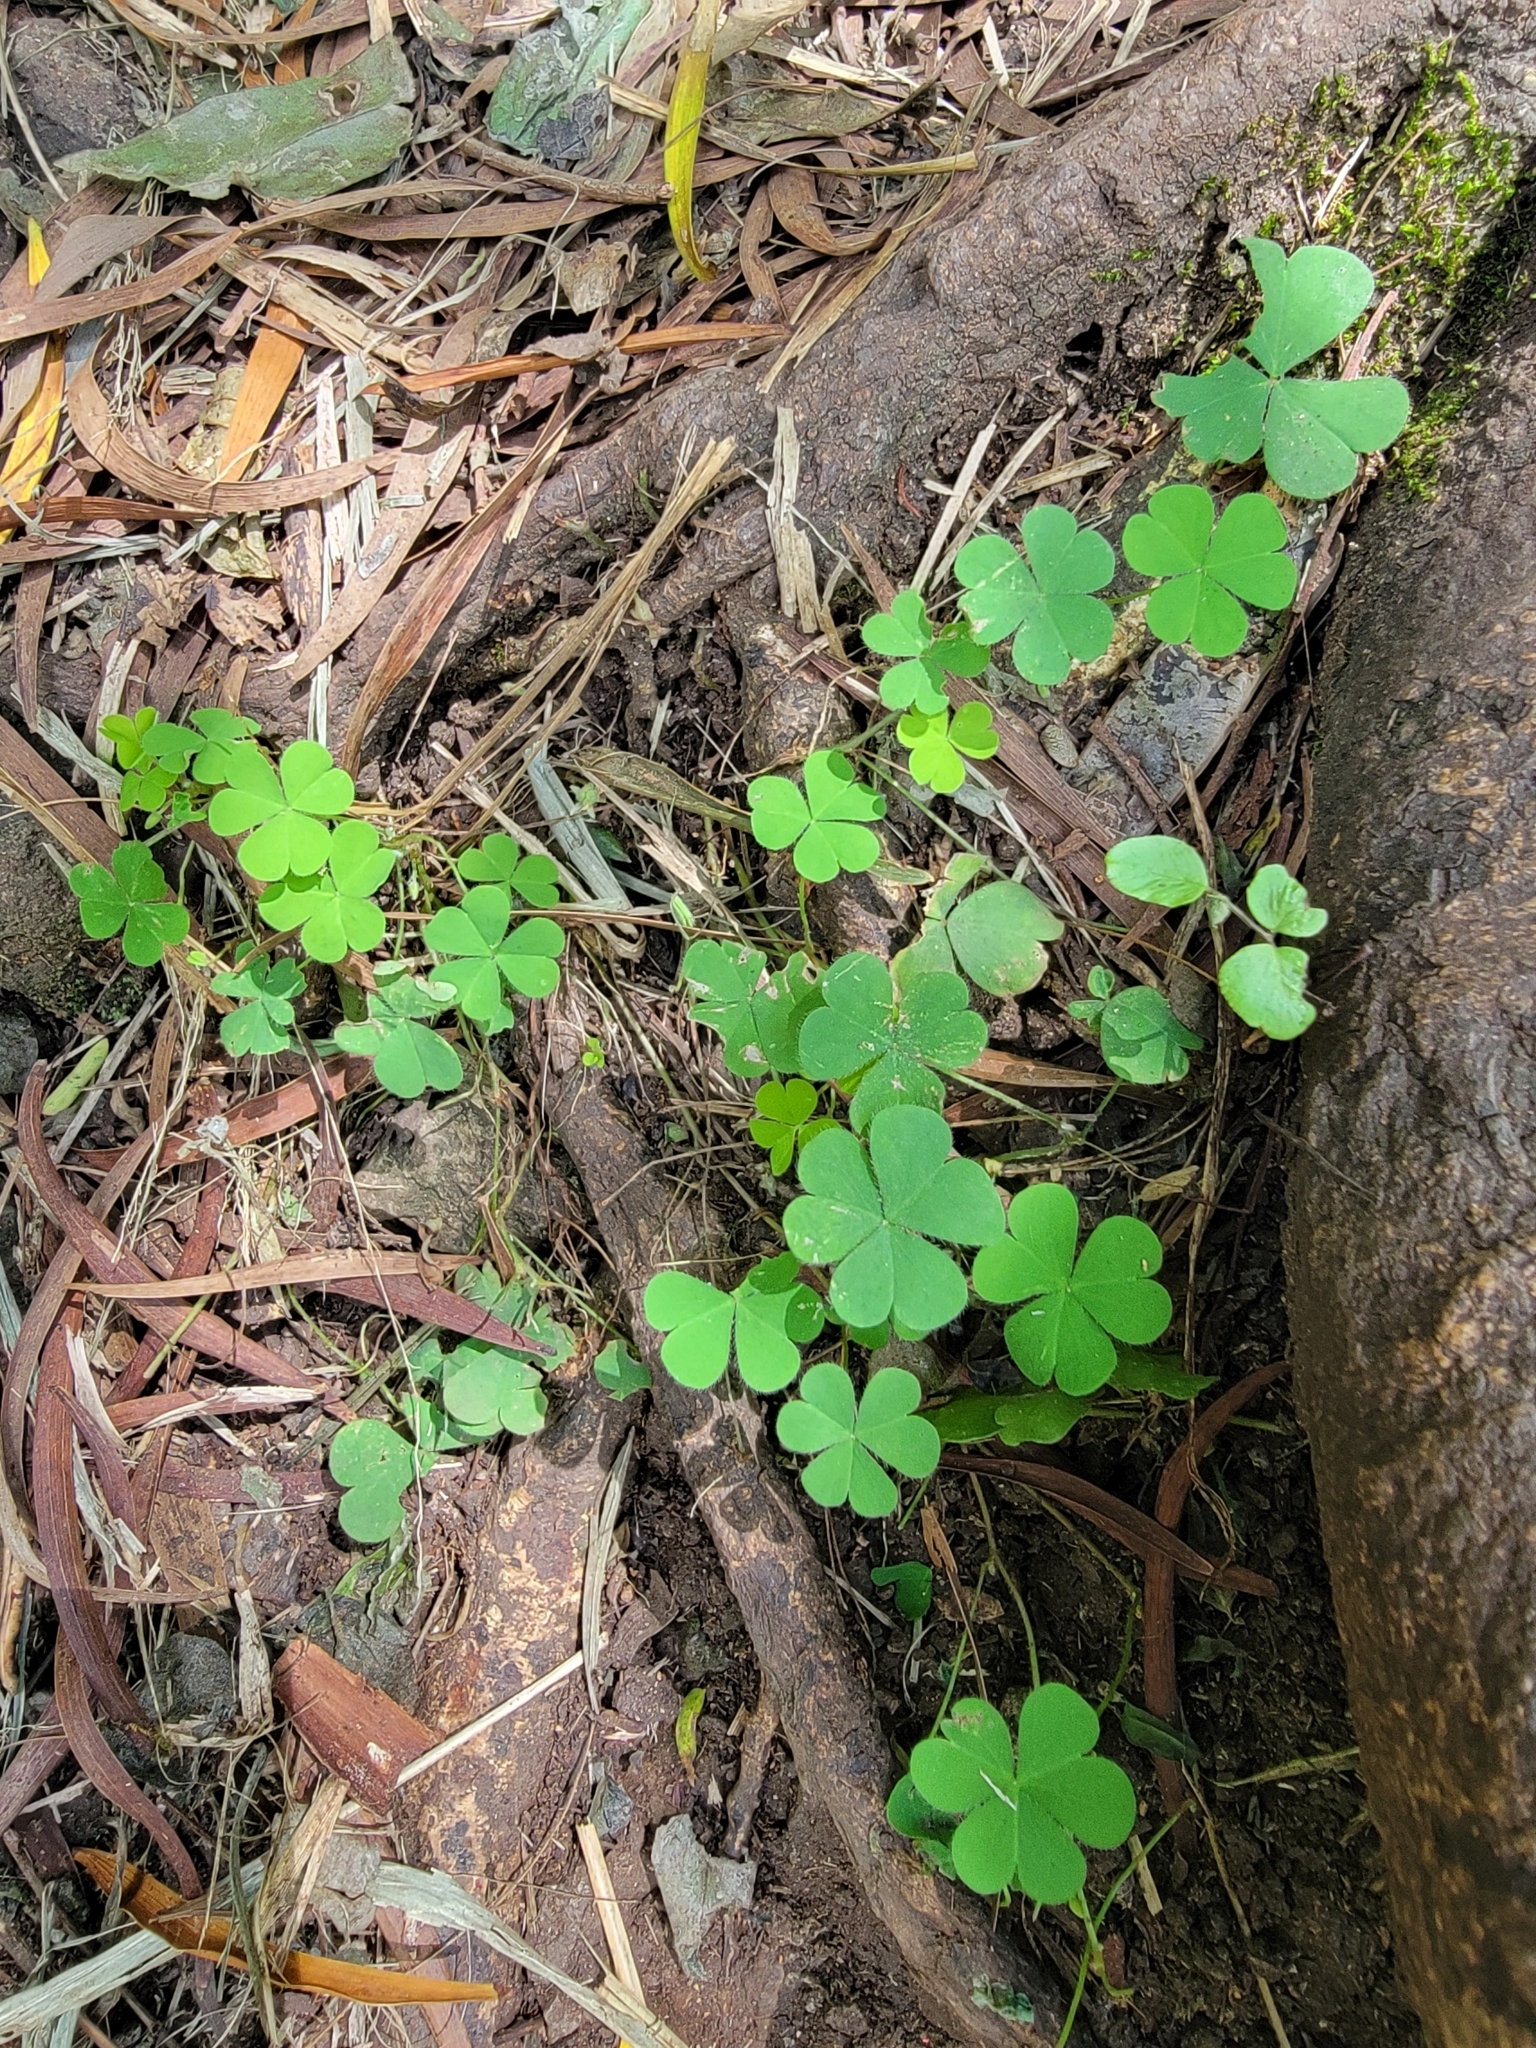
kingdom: Plantae
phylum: Tracheophyta
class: Magnoliopsida
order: Oxalidales
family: Oxalidaceae
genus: Oxalis
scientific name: Oxalis corniculata
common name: Procumbent yellow-sorrel
